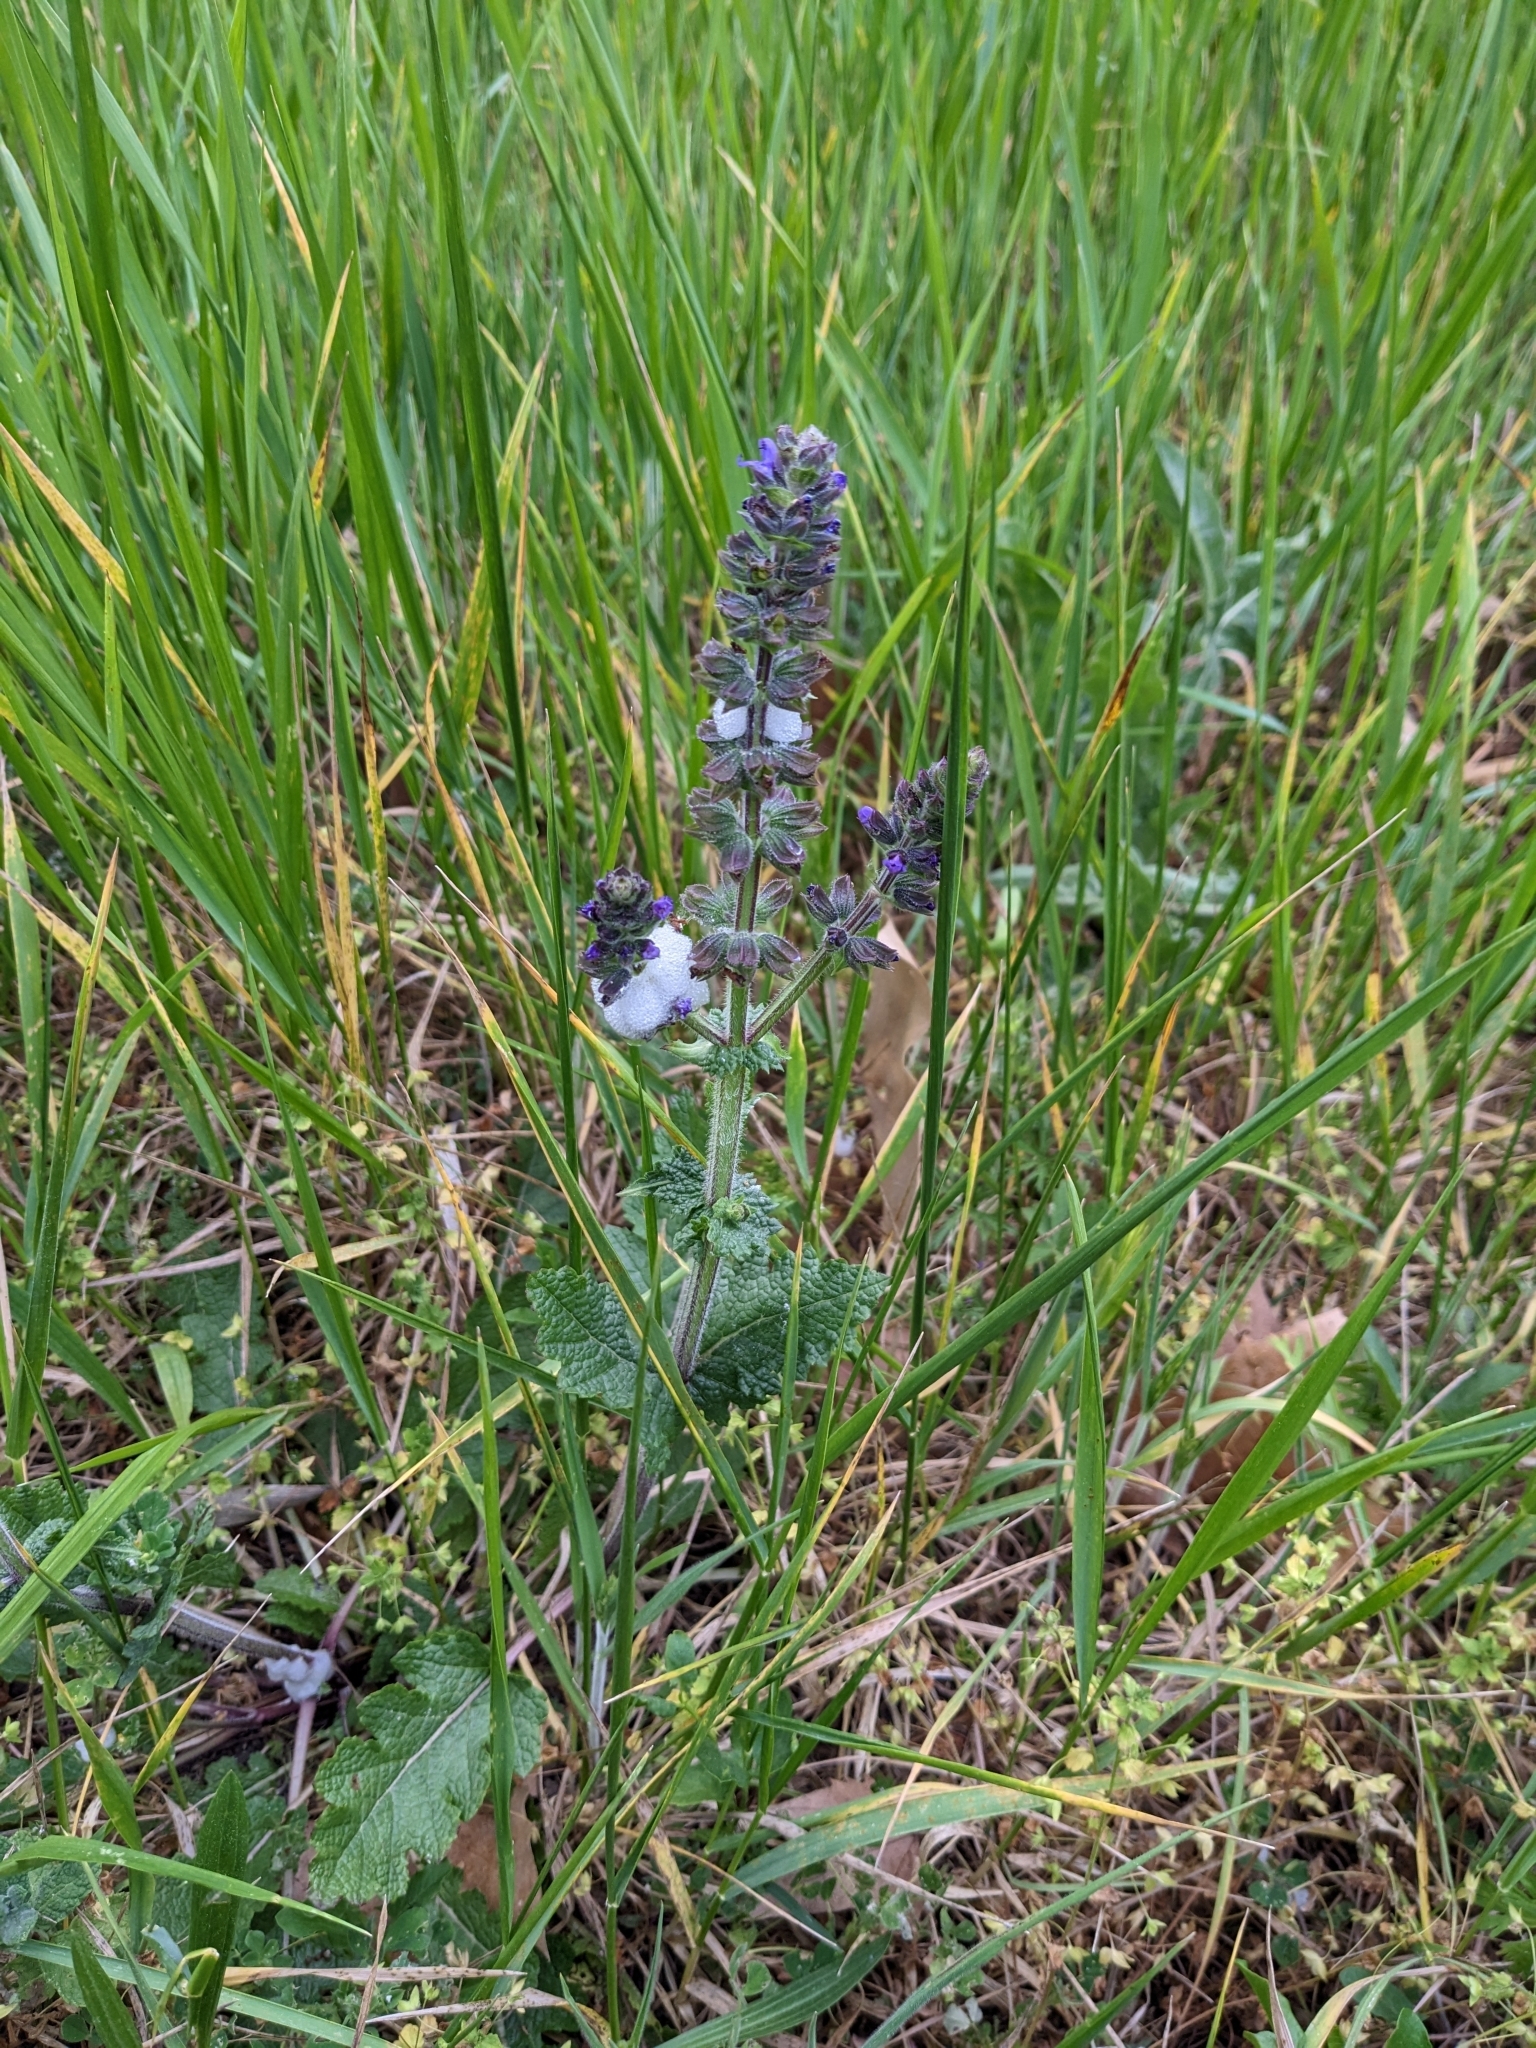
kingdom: Plantae
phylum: Tracheophyta
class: Magnoliopsida
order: Lamiales
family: Lamiaceae
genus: Salvia
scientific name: Salvia verbenaca
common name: Wild clary
